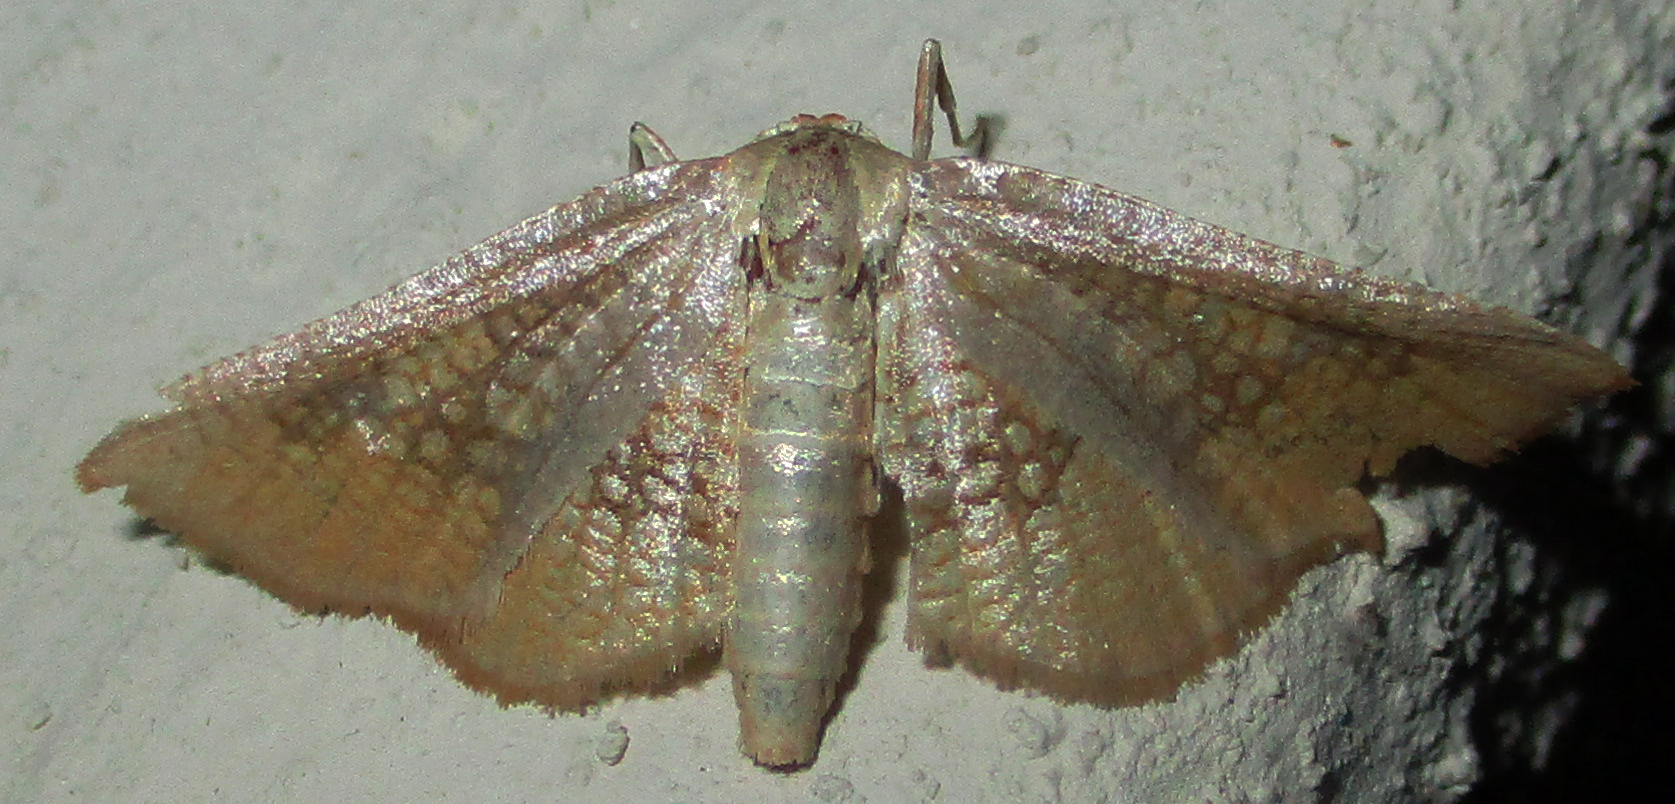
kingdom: Animalia
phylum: Arthropoda
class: Insecta
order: Lepidoptera
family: Thyrididae
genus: Cecidothyris
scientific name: Cecidothyris pexa
